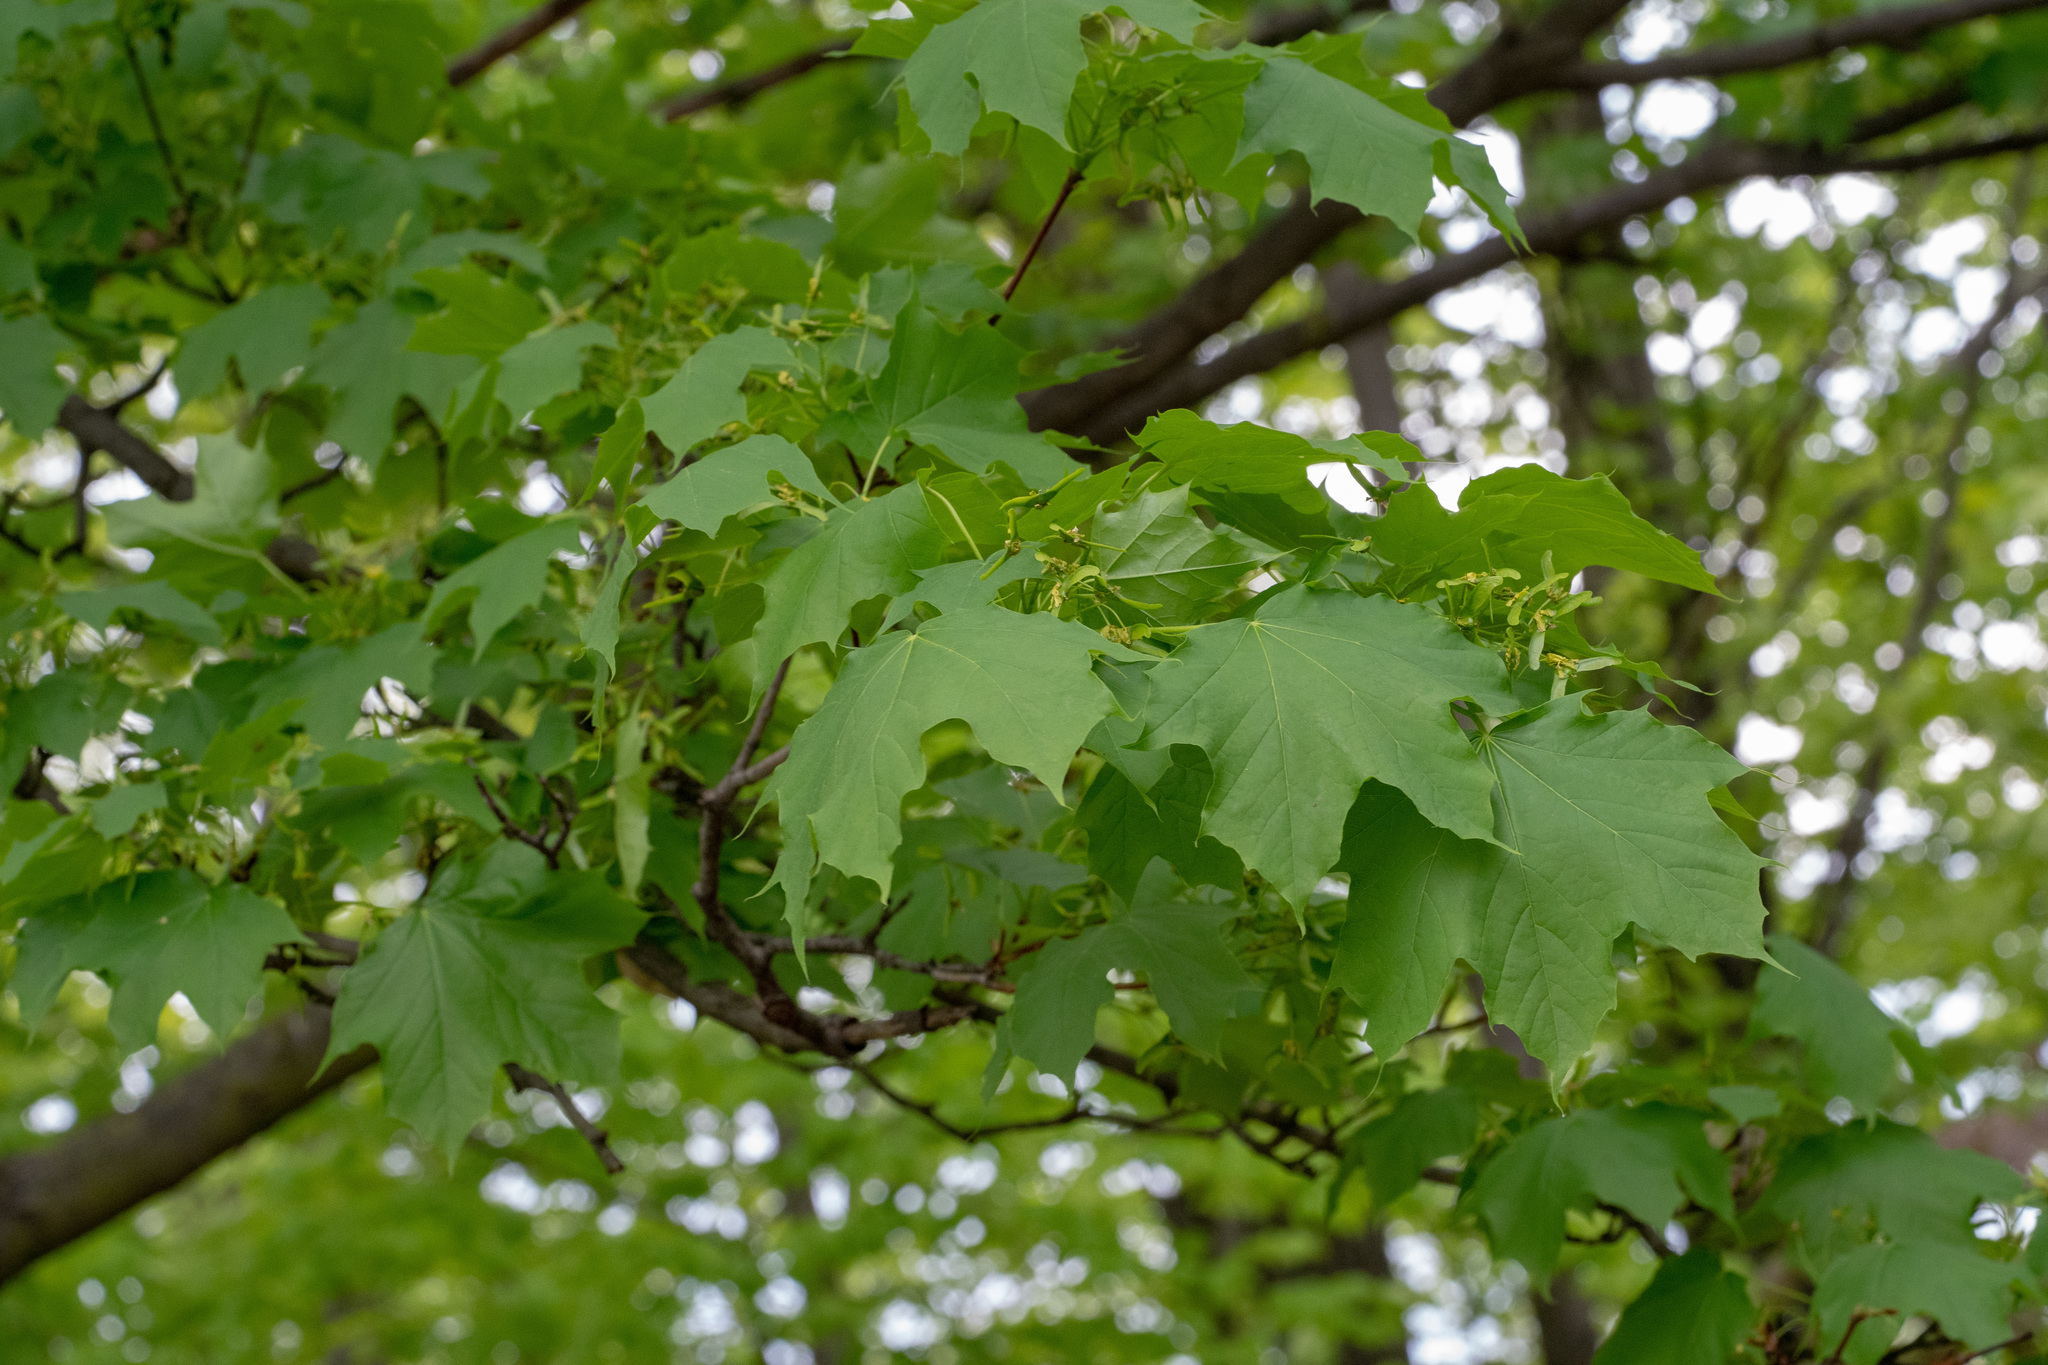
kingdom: Plantae
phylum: Tracheophyta
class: Magnoliopsida
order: Sapindales
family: Sapindaceae
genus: Acer
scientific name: Acer platanoides
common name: Norway maple
